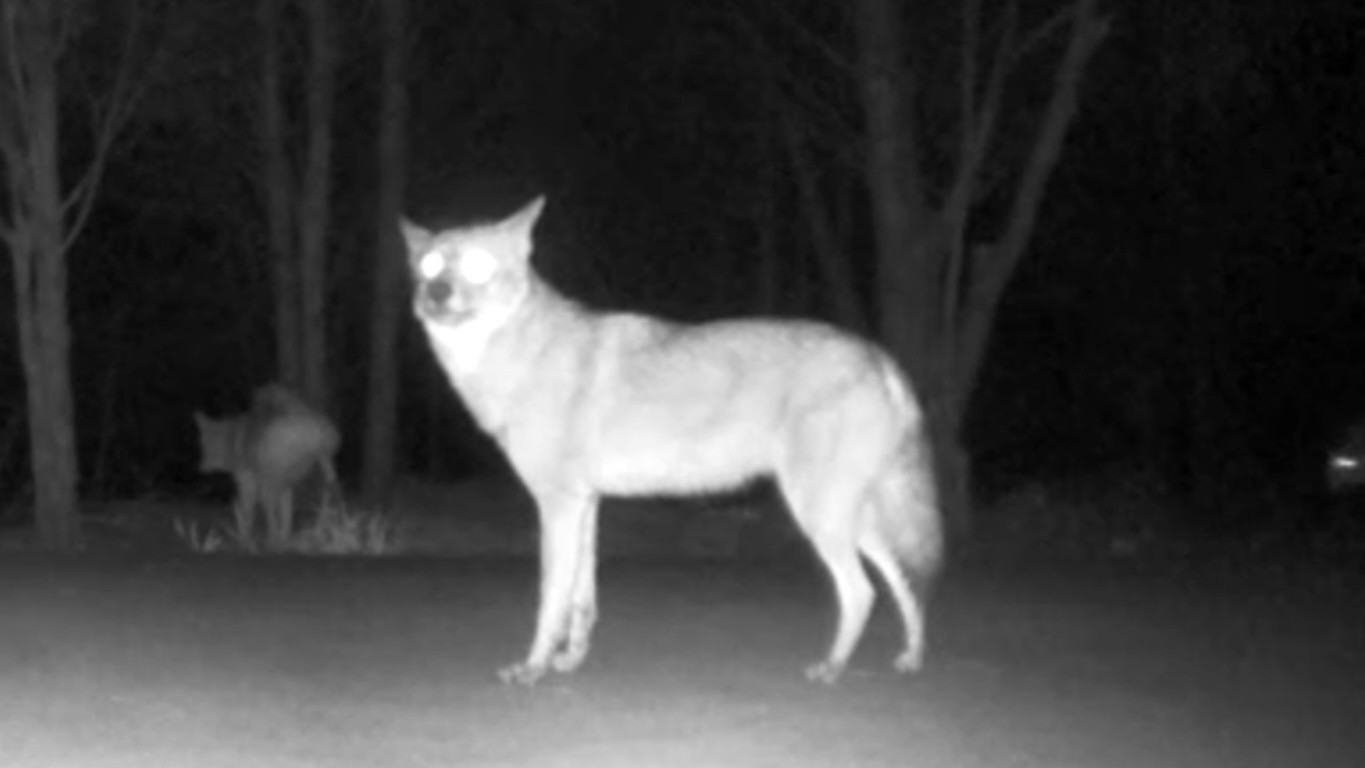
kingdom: Animalia
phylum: Chordata
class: Mammalia
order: Carnivora
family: Canidae
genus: Canis
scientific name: Canis latrans
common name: Coyote
